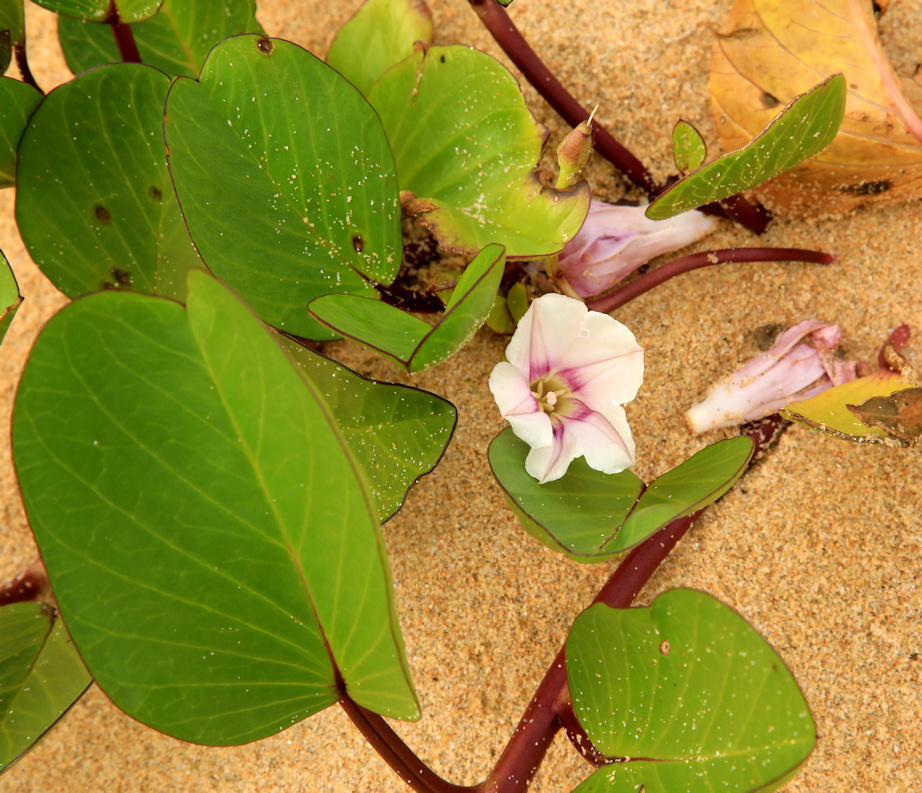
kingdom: Plantae
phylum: Tracheophyta
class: Magnoliopsida
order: Solanales
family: Convolvulaceae
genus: Ipomoea
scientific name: Ipomoea pes-caprae
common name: Beach morning glory
